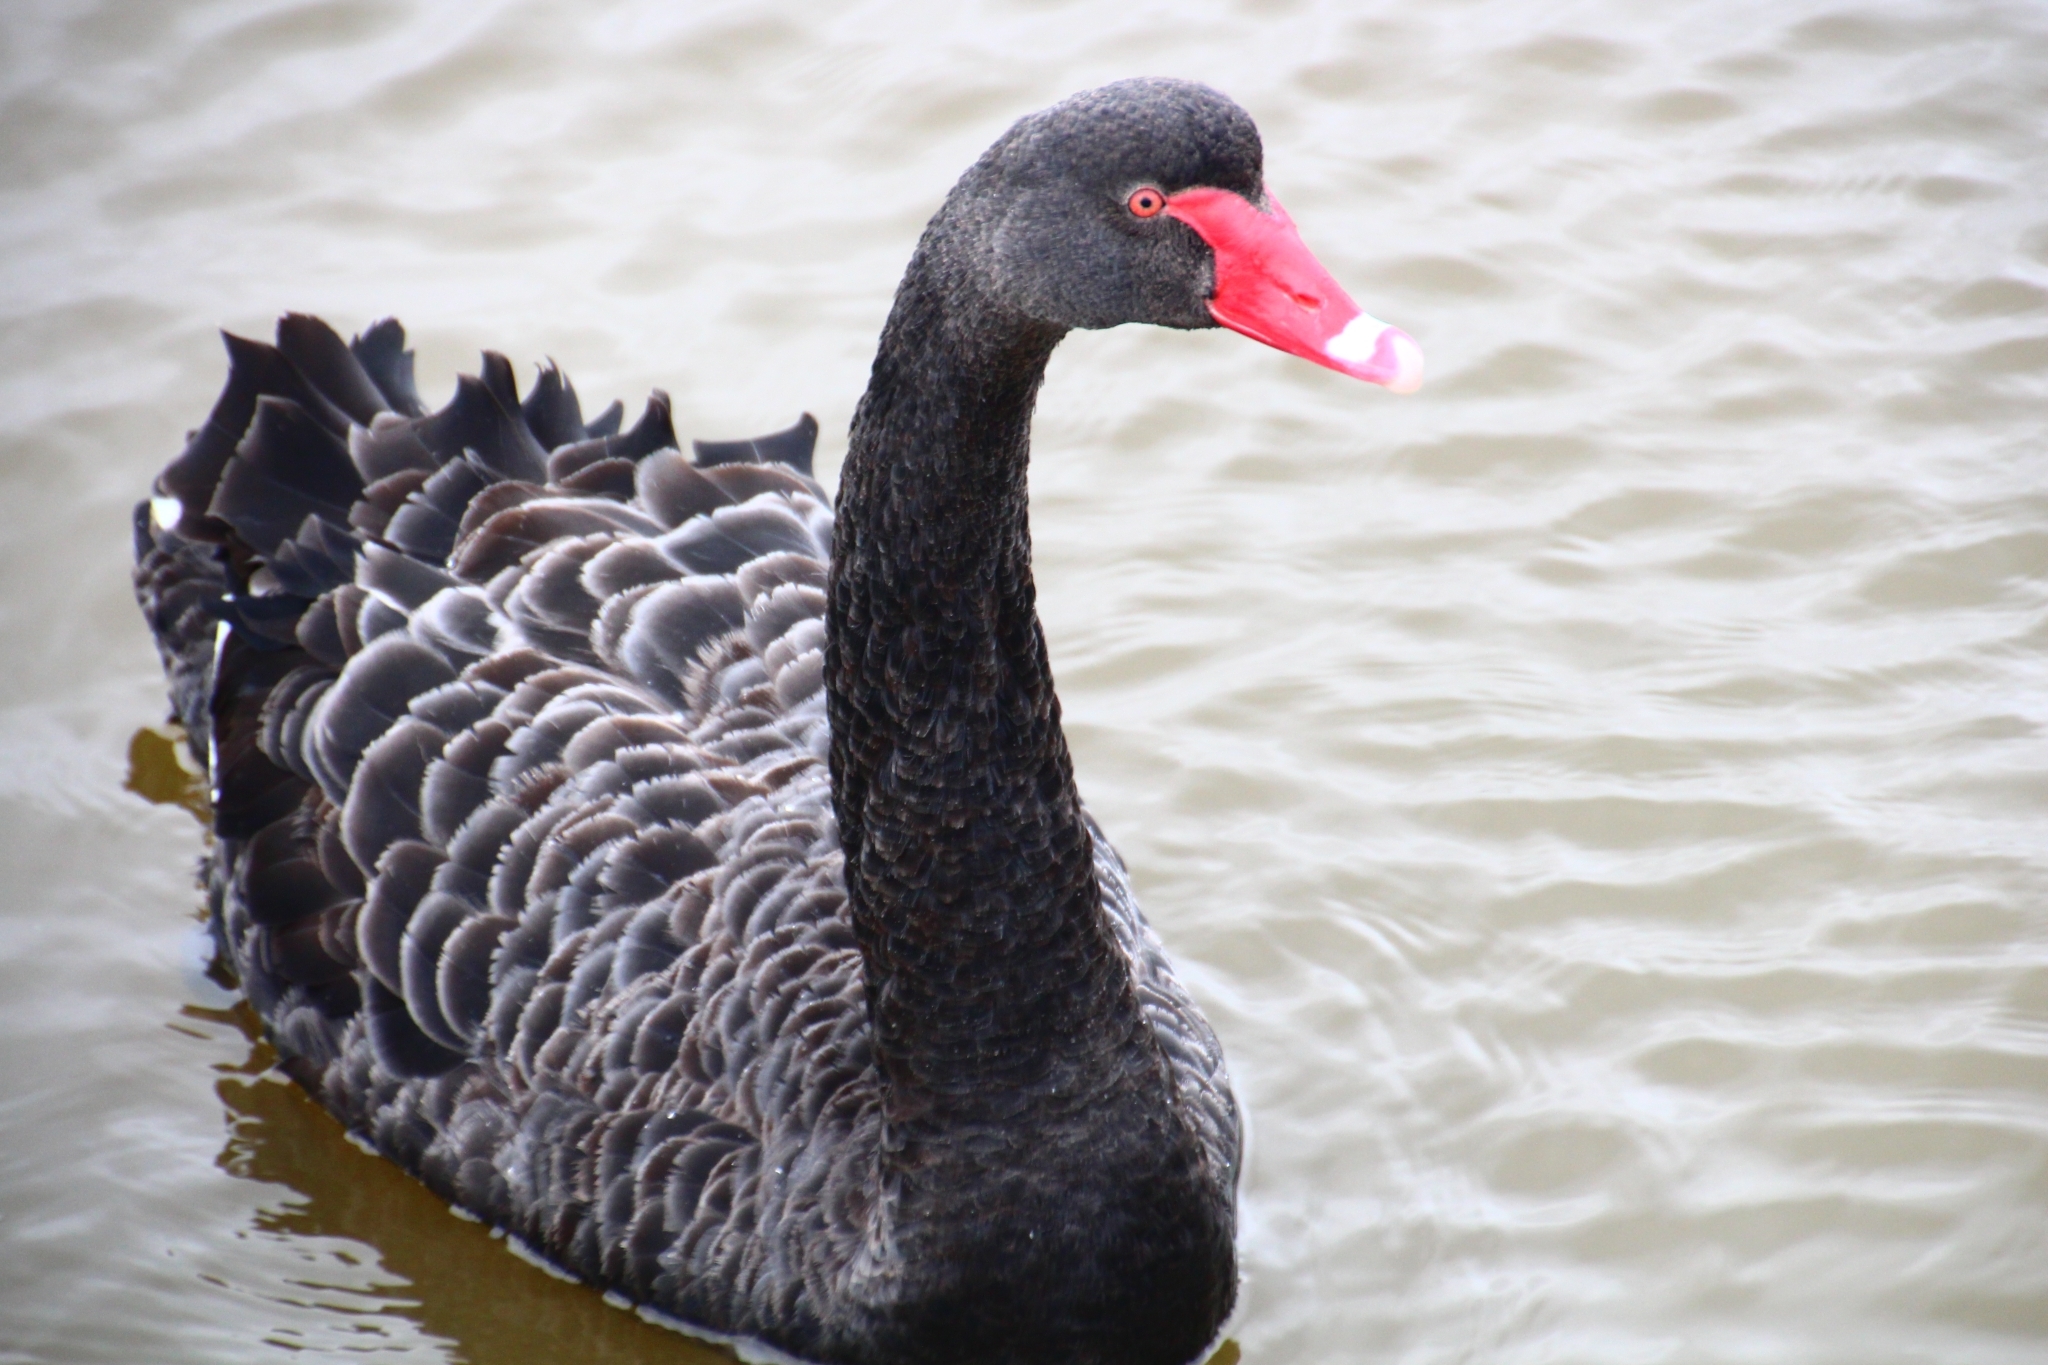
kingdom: Animalia
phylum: Chordata
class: Aves
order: Anseriformes
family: Anatidae
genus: Cygnus
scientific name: Cygnus atratus
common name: Black swan
